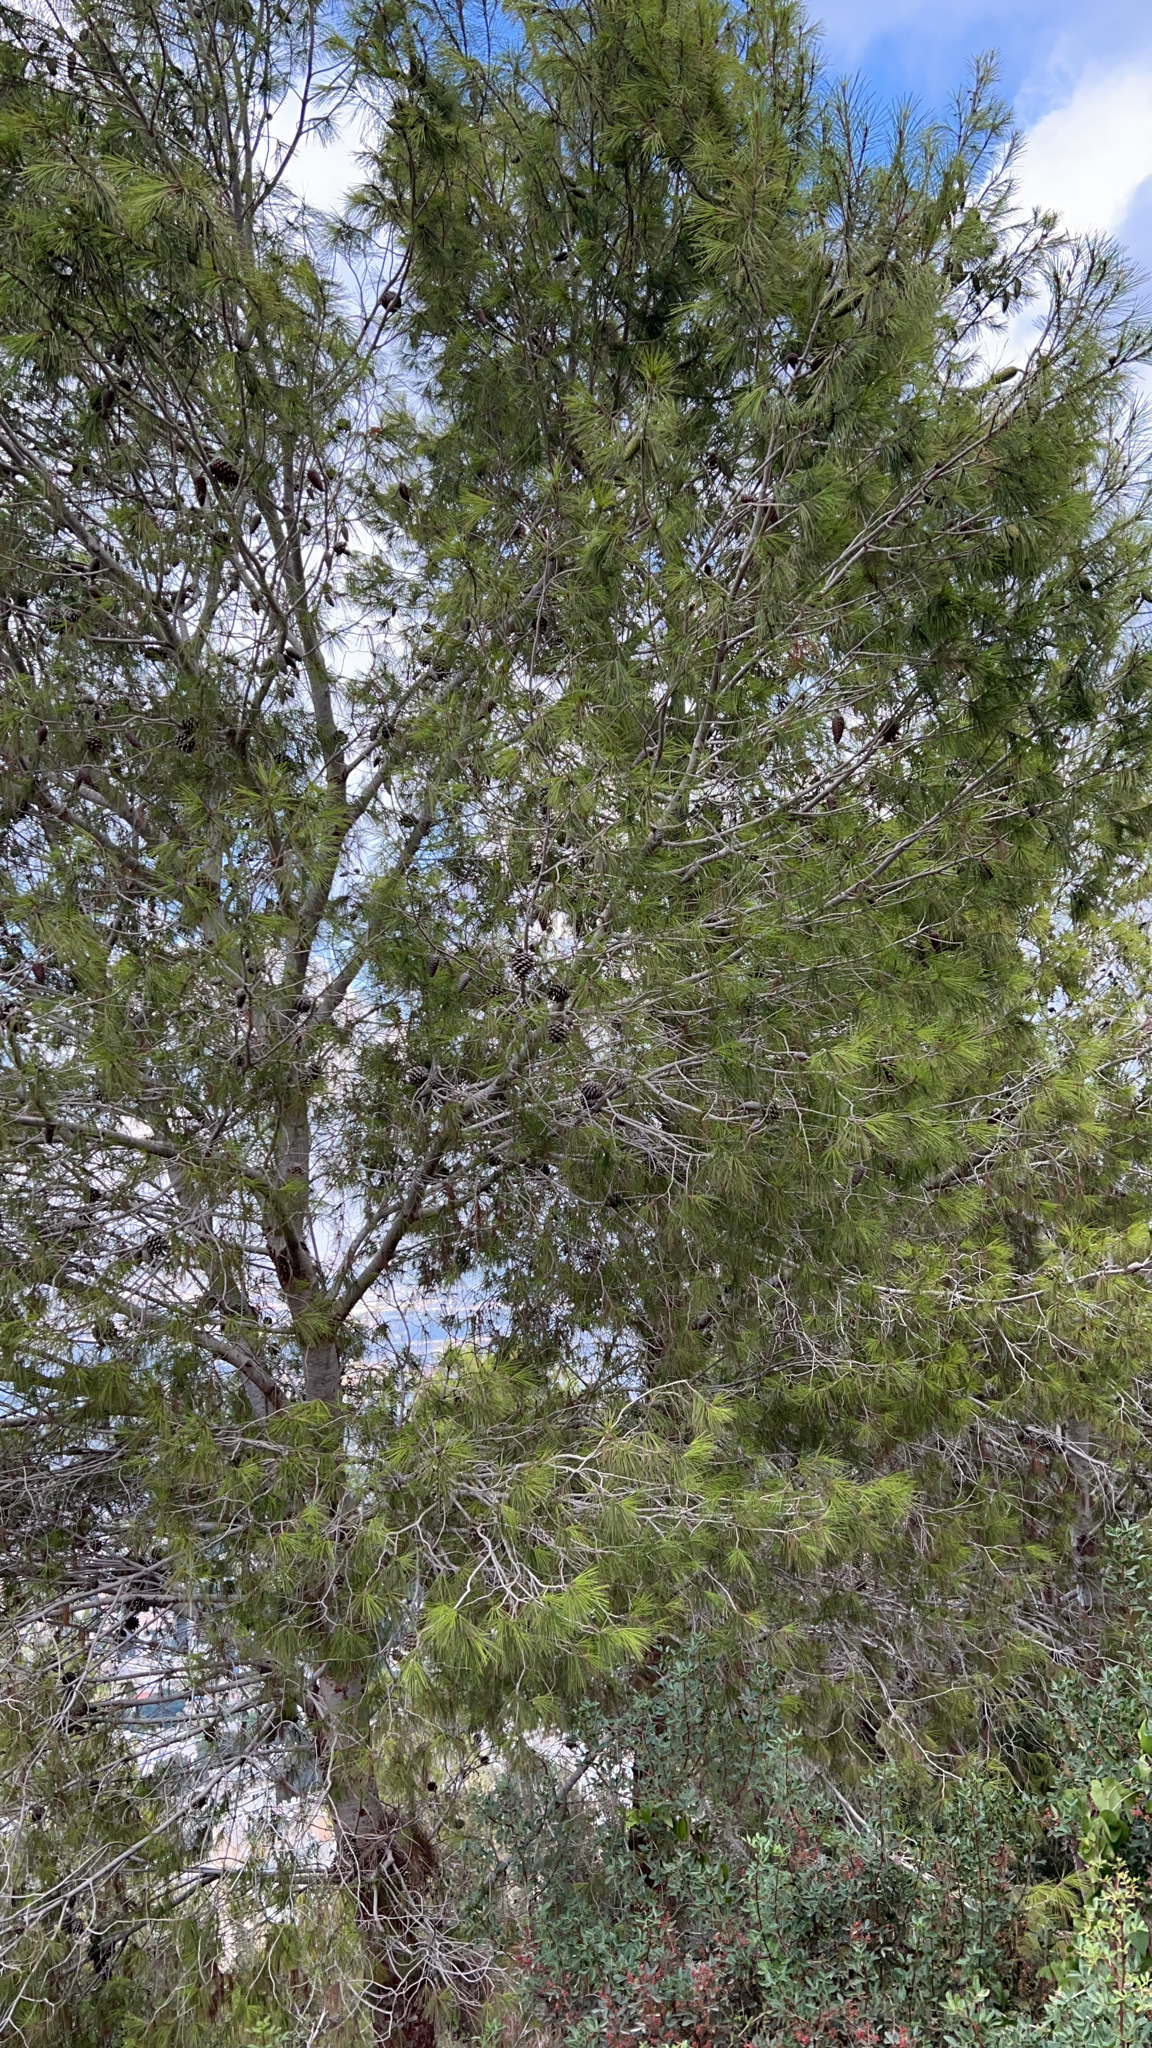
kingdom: Plantae
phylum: Tracheophyta
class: Pinopsida
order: Pinales
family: Pinaceae
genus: Pinus
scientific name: Pinus halepensis
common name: Aleppo pine
